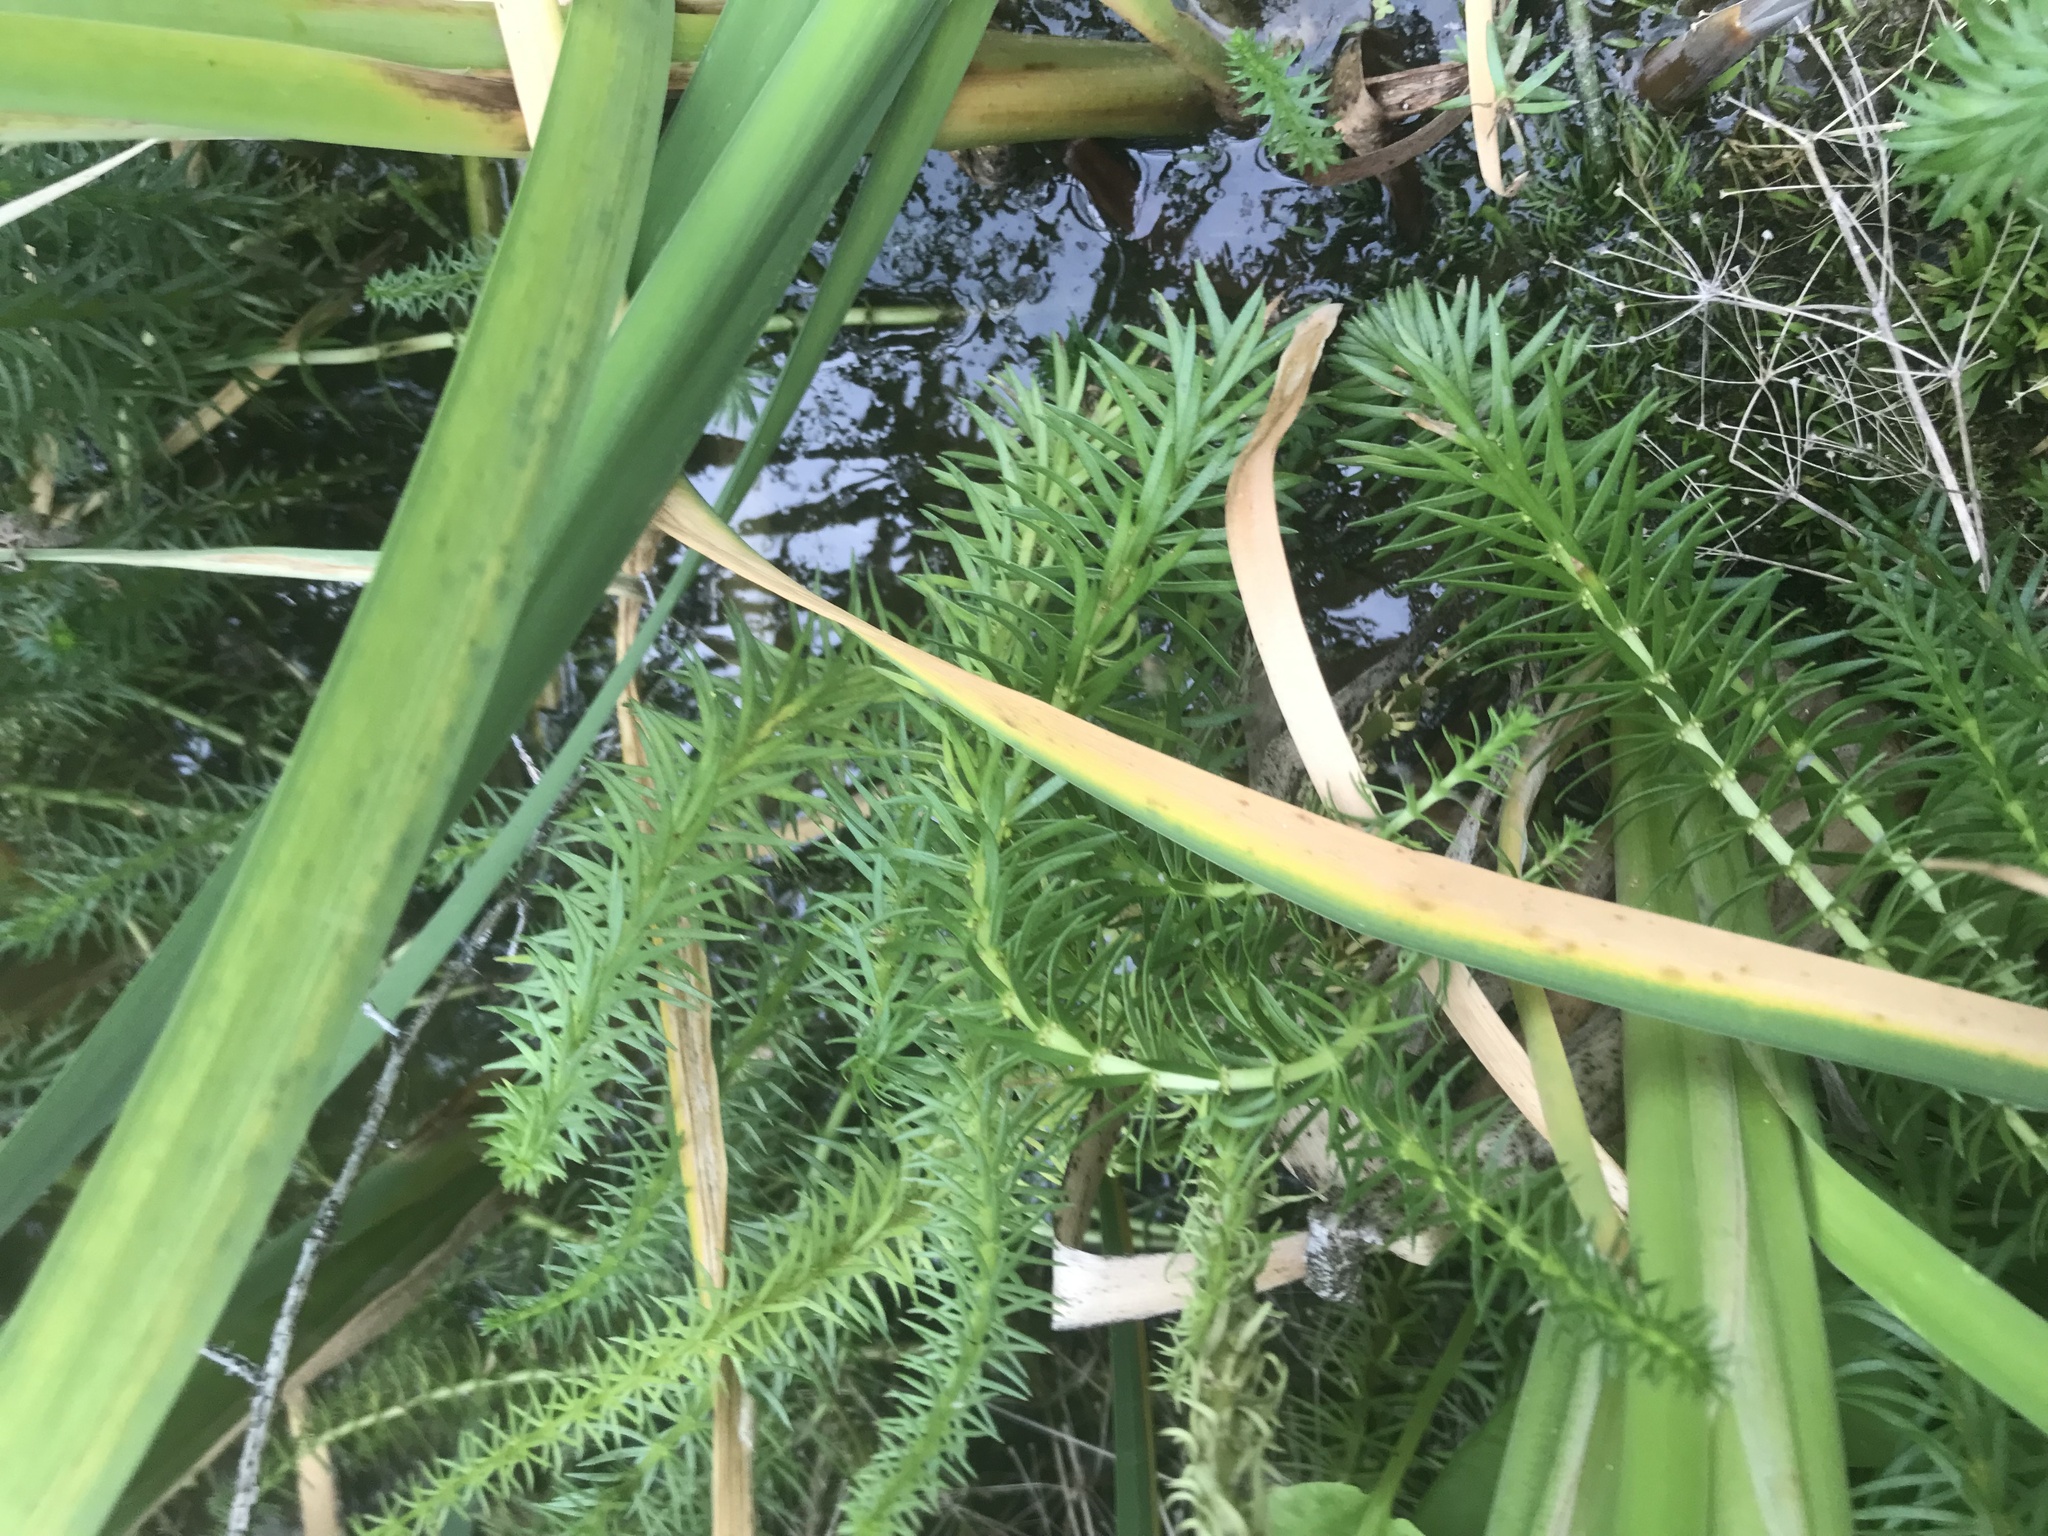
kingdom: Plantae
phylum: Tracheophyta
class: Magnoliopsida
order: Lamiales
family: Plantaginaceae
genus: Hippuris
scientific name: Hippuris vulgaris
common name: Mare's-tail
